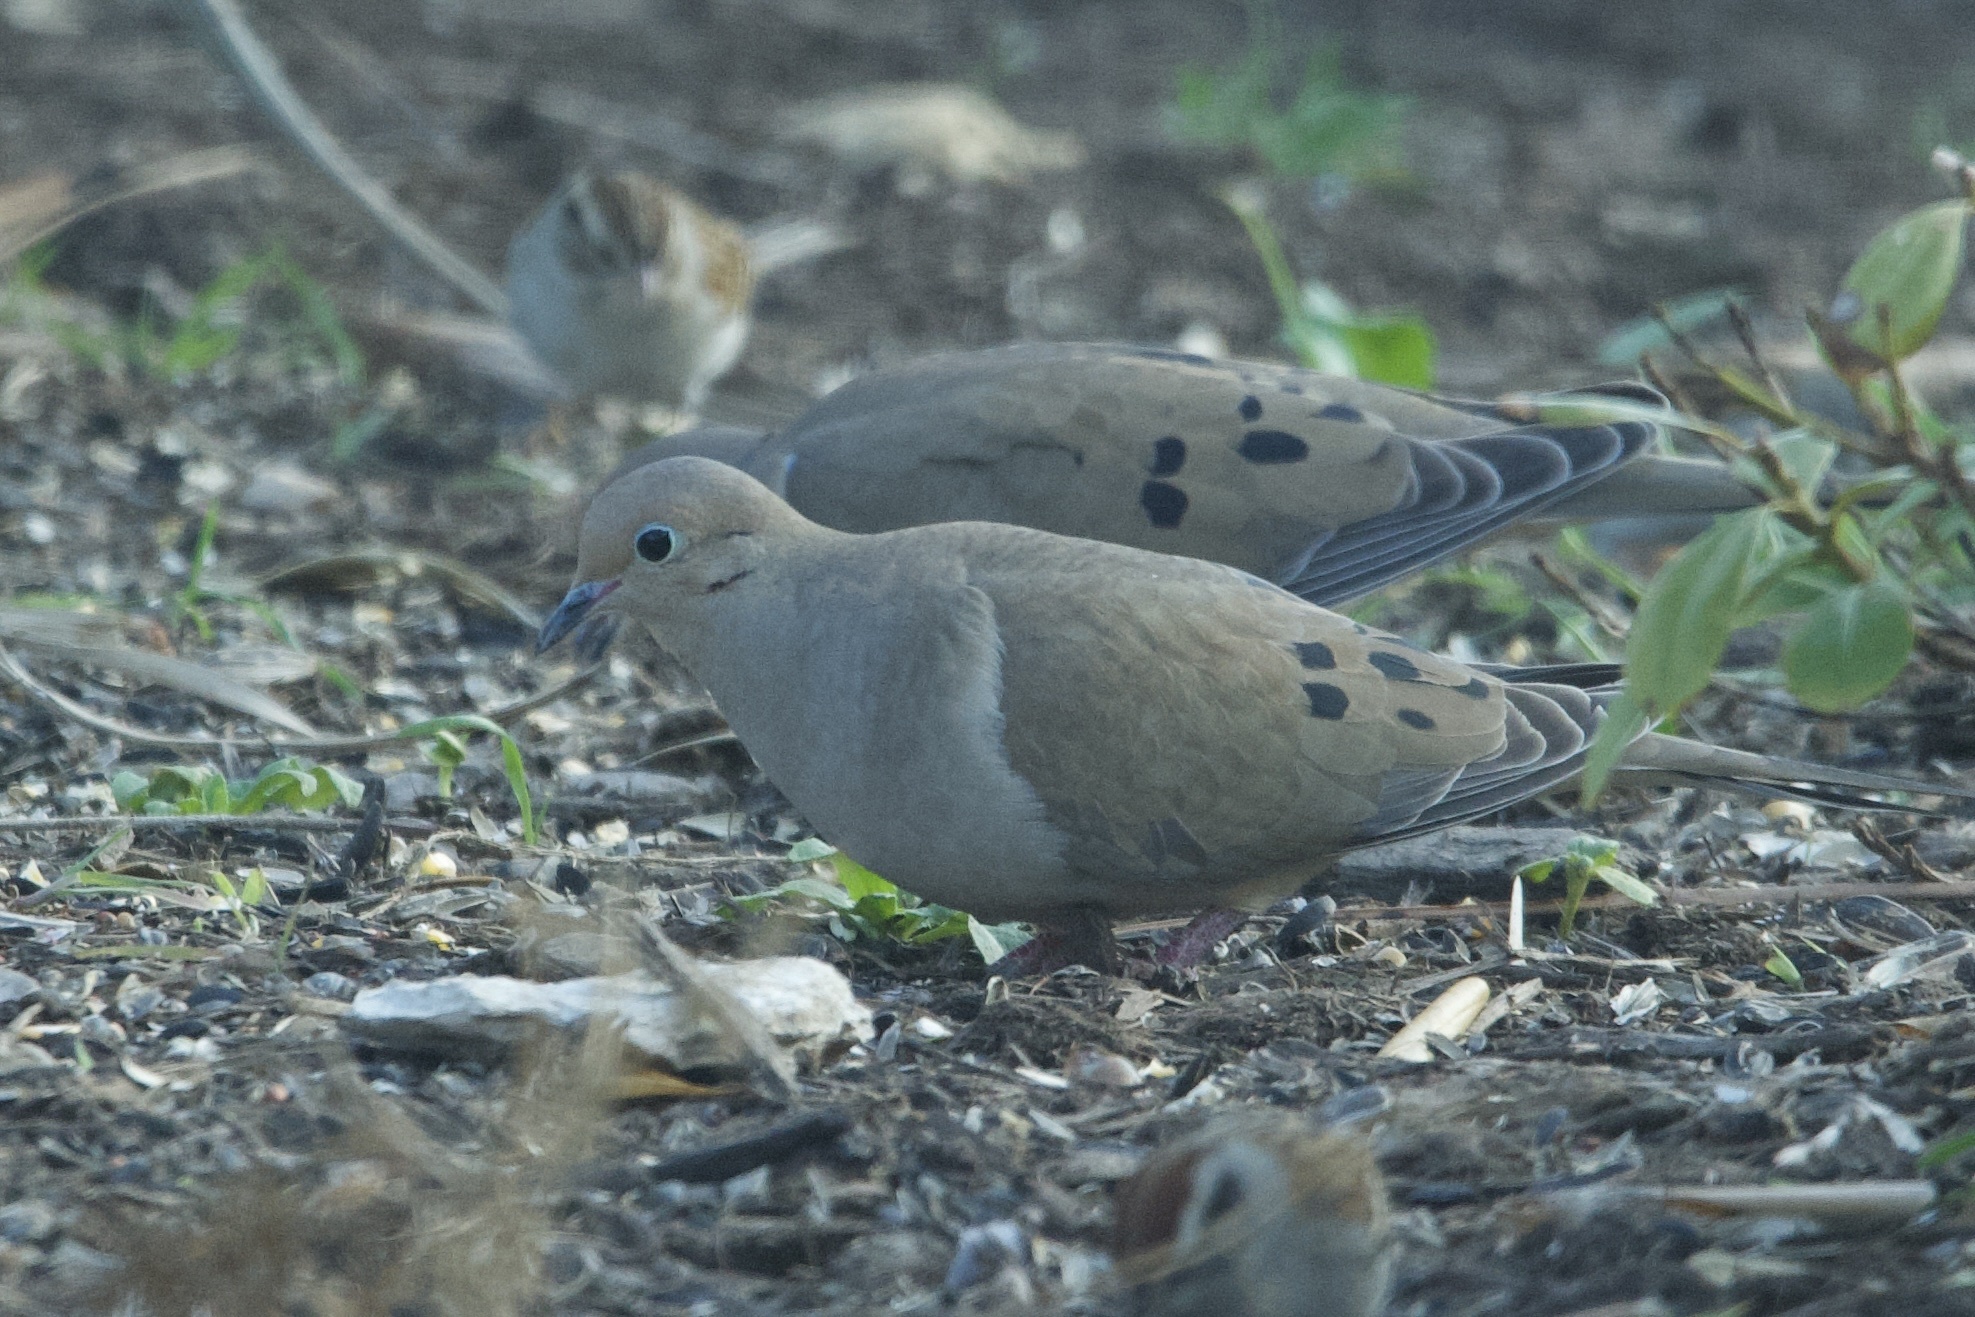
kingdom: Animalia
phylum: Chordata
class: Aves
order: Columbiformes
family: Columbidae
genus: Zenaida
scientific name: Zenaida macroura
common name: Mourning dove
